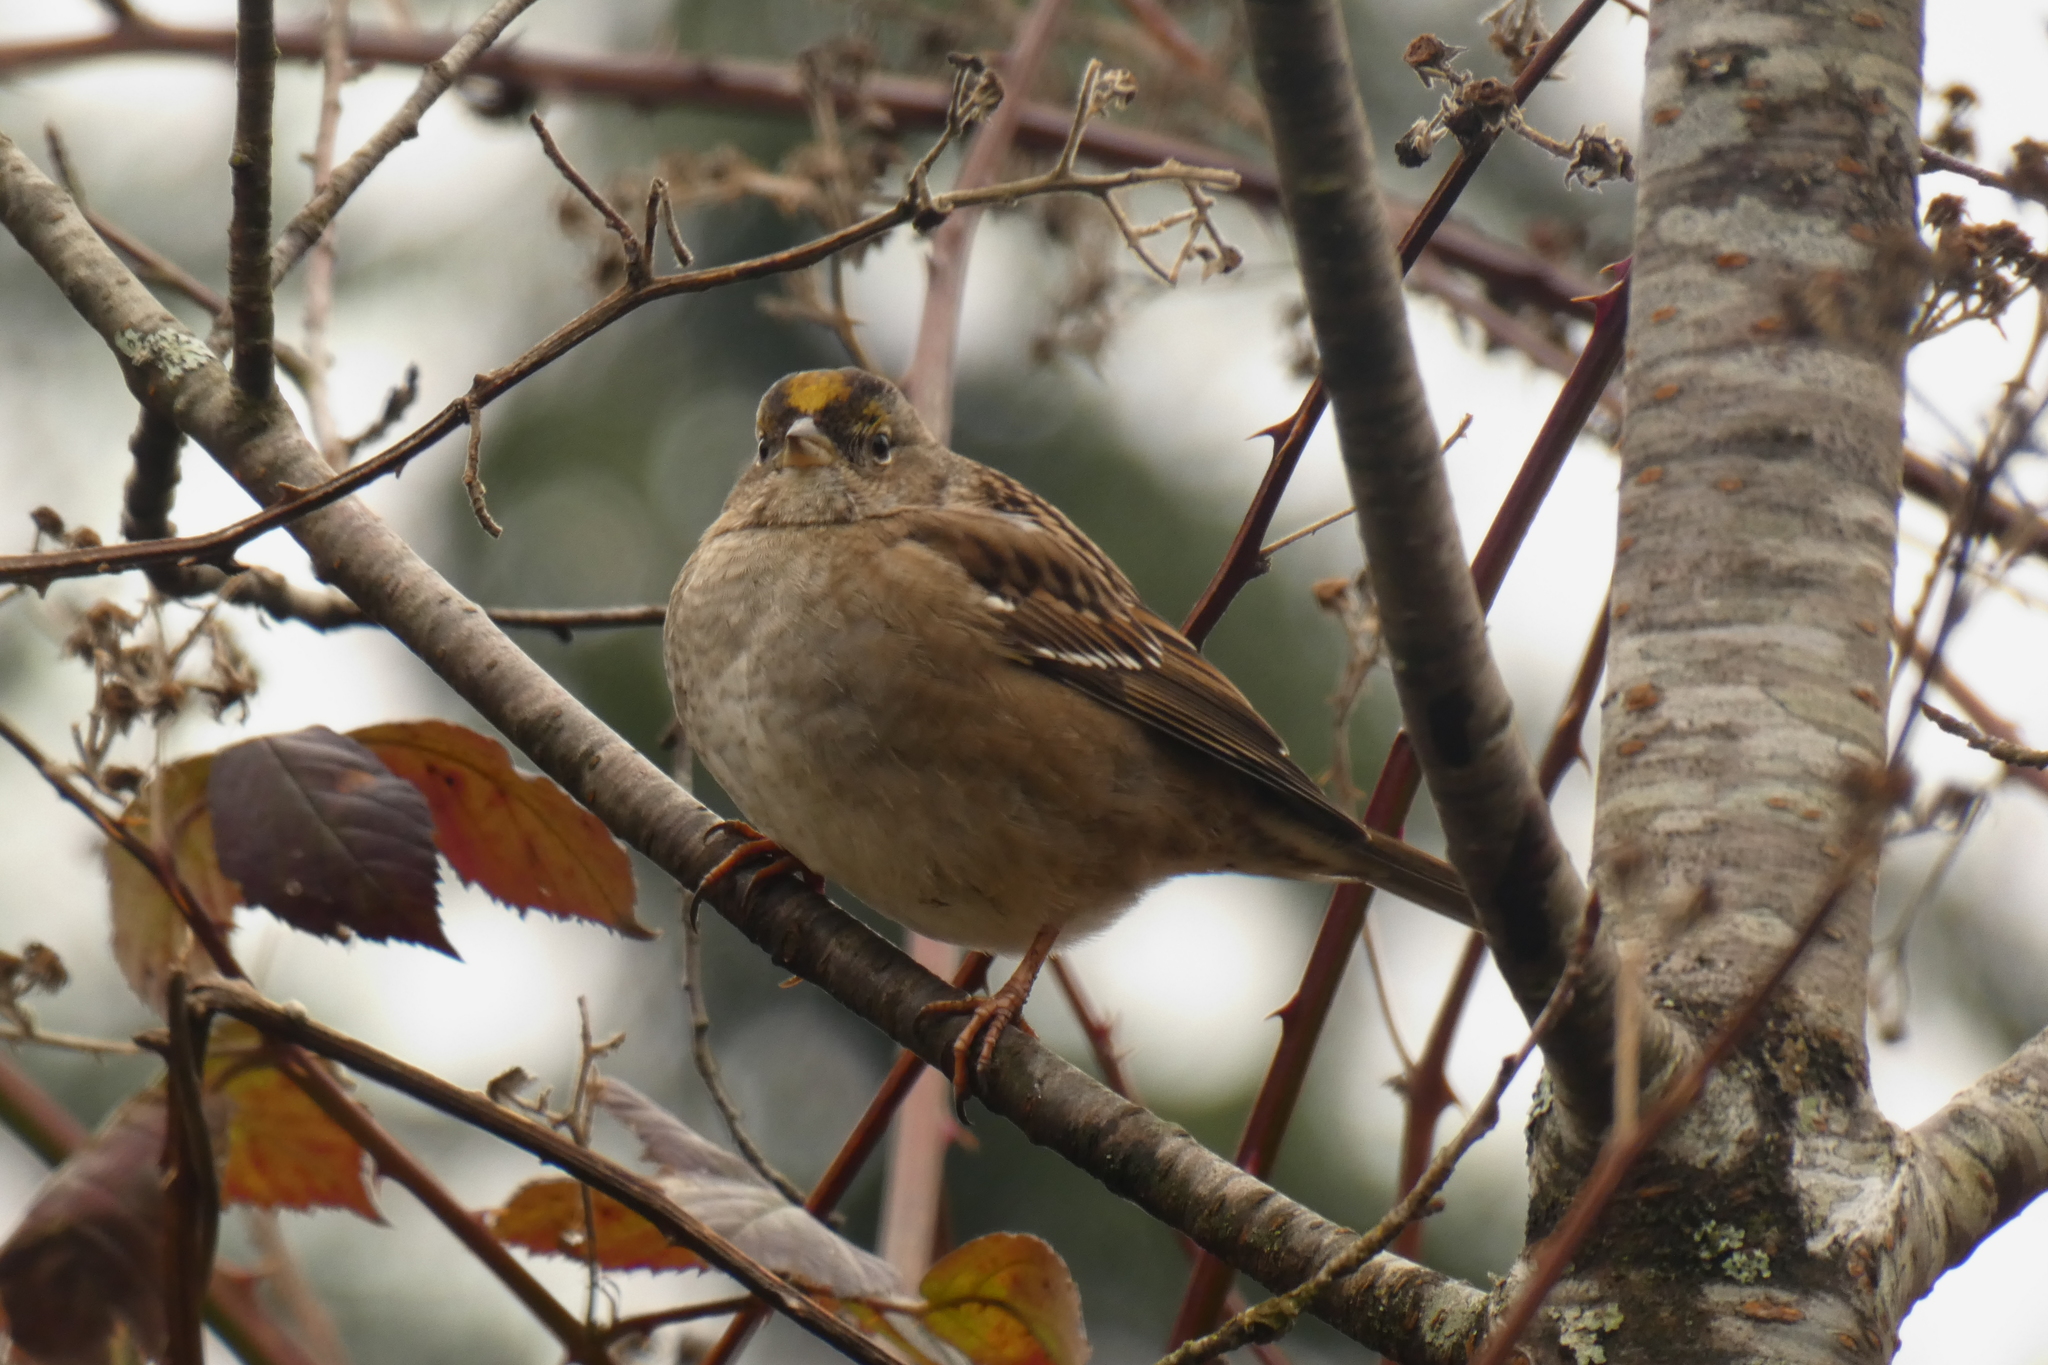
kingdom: Animalia
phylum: Chordata
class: Aves
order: Passeriformes
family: Passerellidae
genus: Zonotrichia
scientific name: Zonotrichia atricapilla
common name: Golden-crowned sparrow
